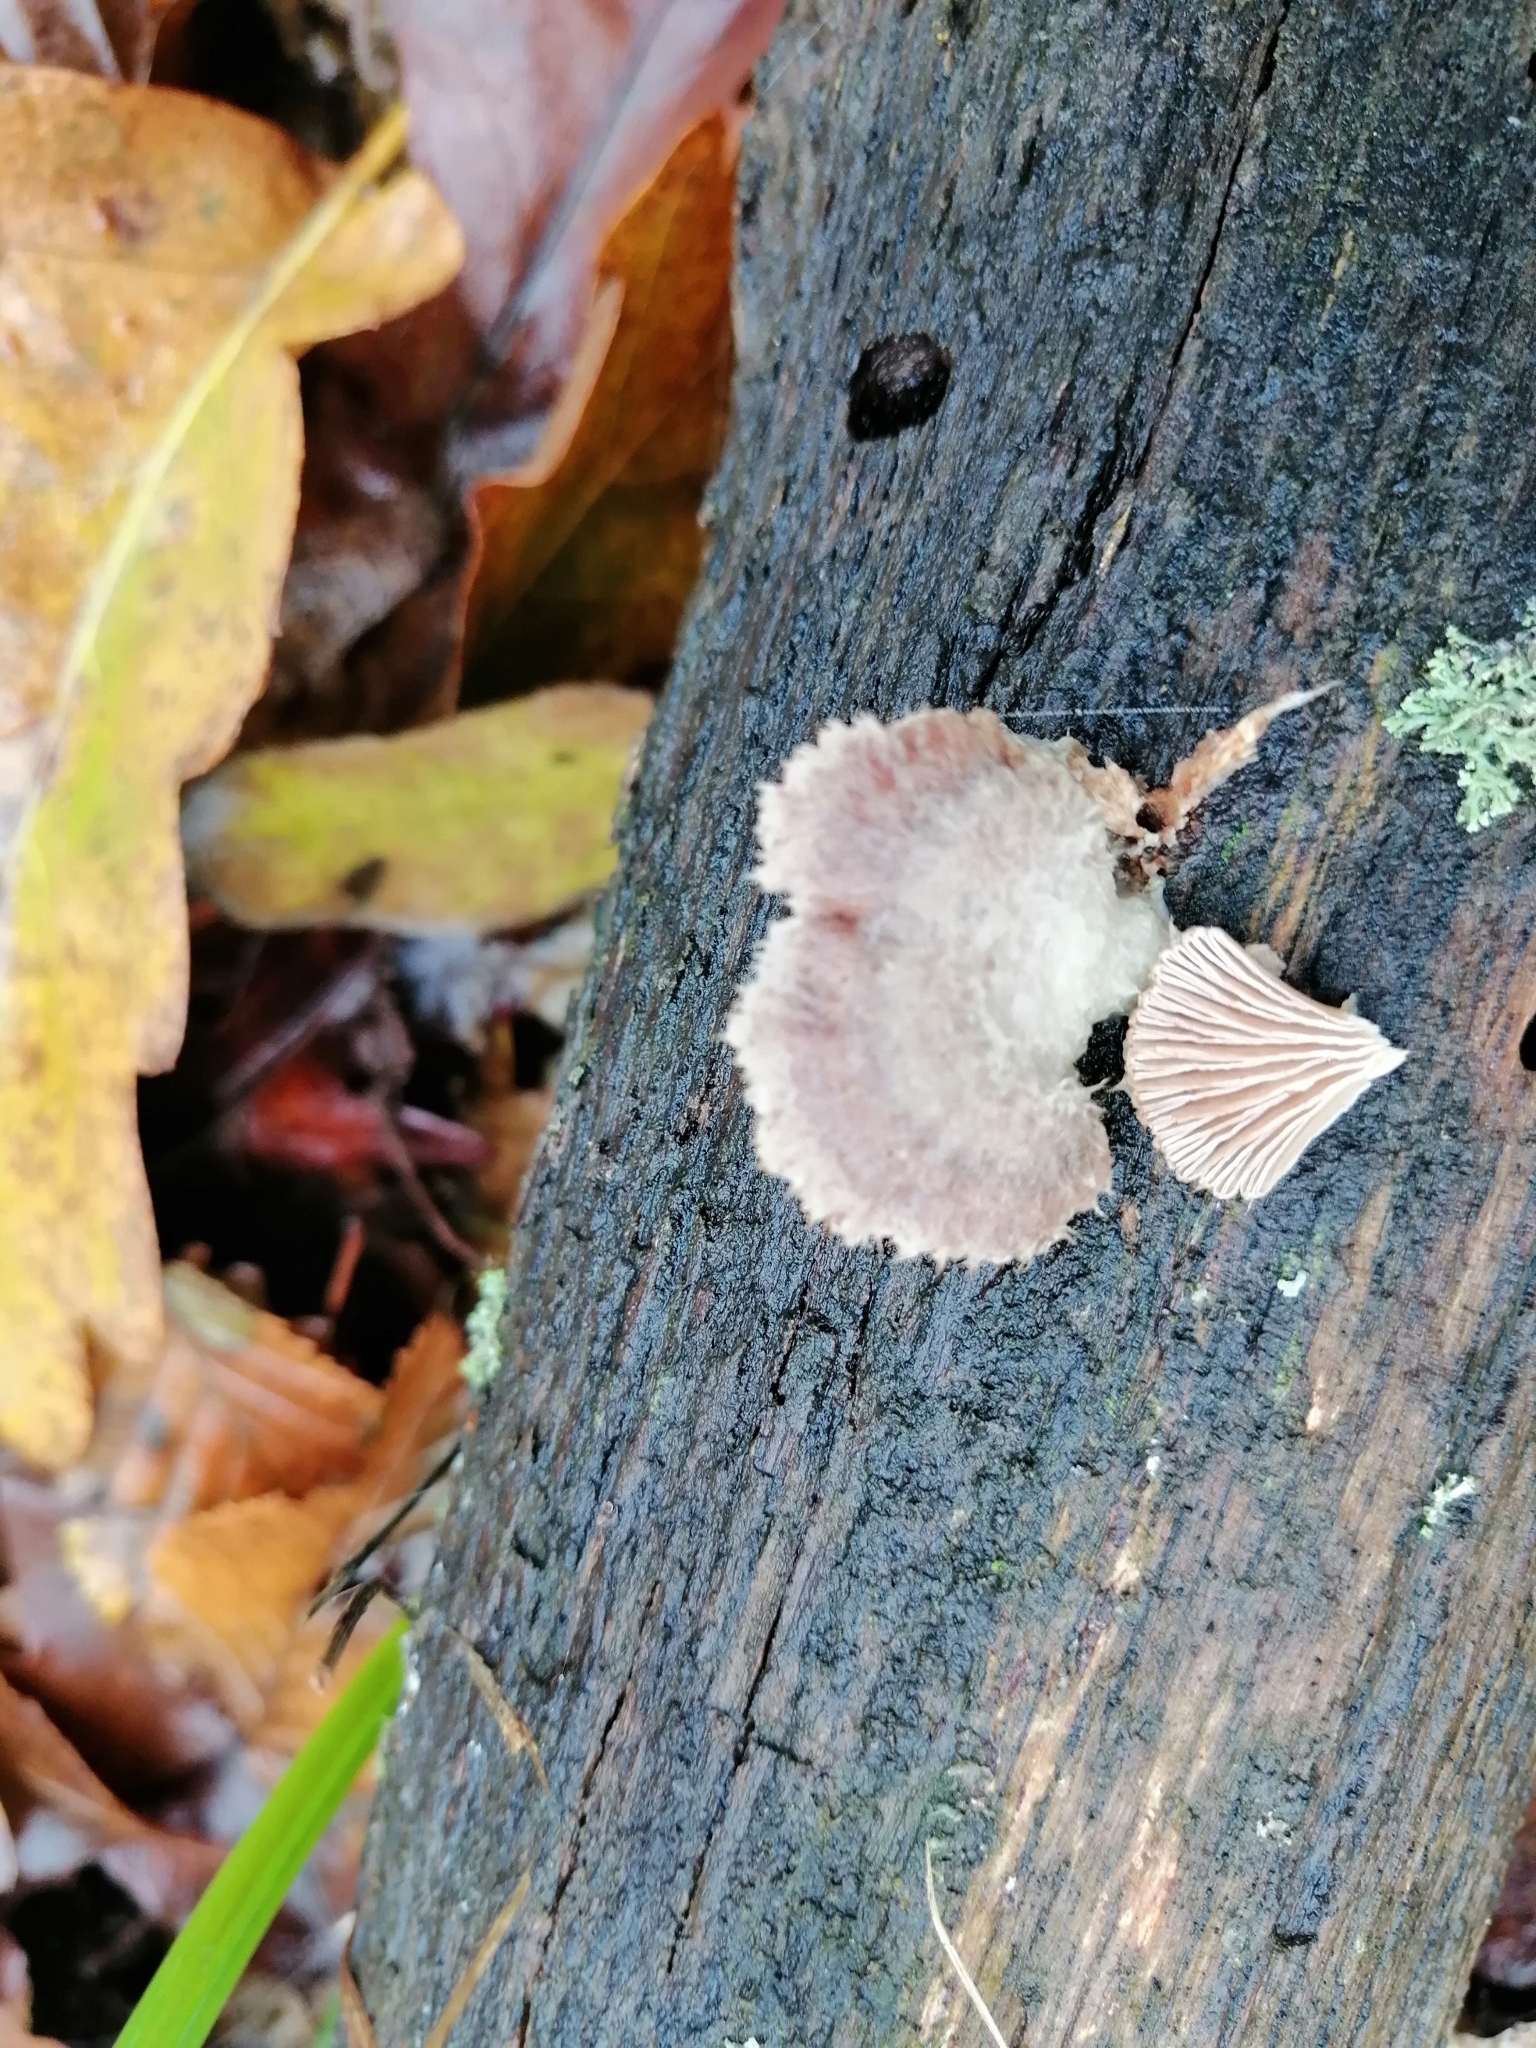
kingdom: Fungi
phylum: Basidiomycota
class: Agaricomycetes
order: Agaricales
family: Schizophyllaceae
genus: Schizophyllum
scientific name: Schizophyllum commune
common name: Common porecrust
